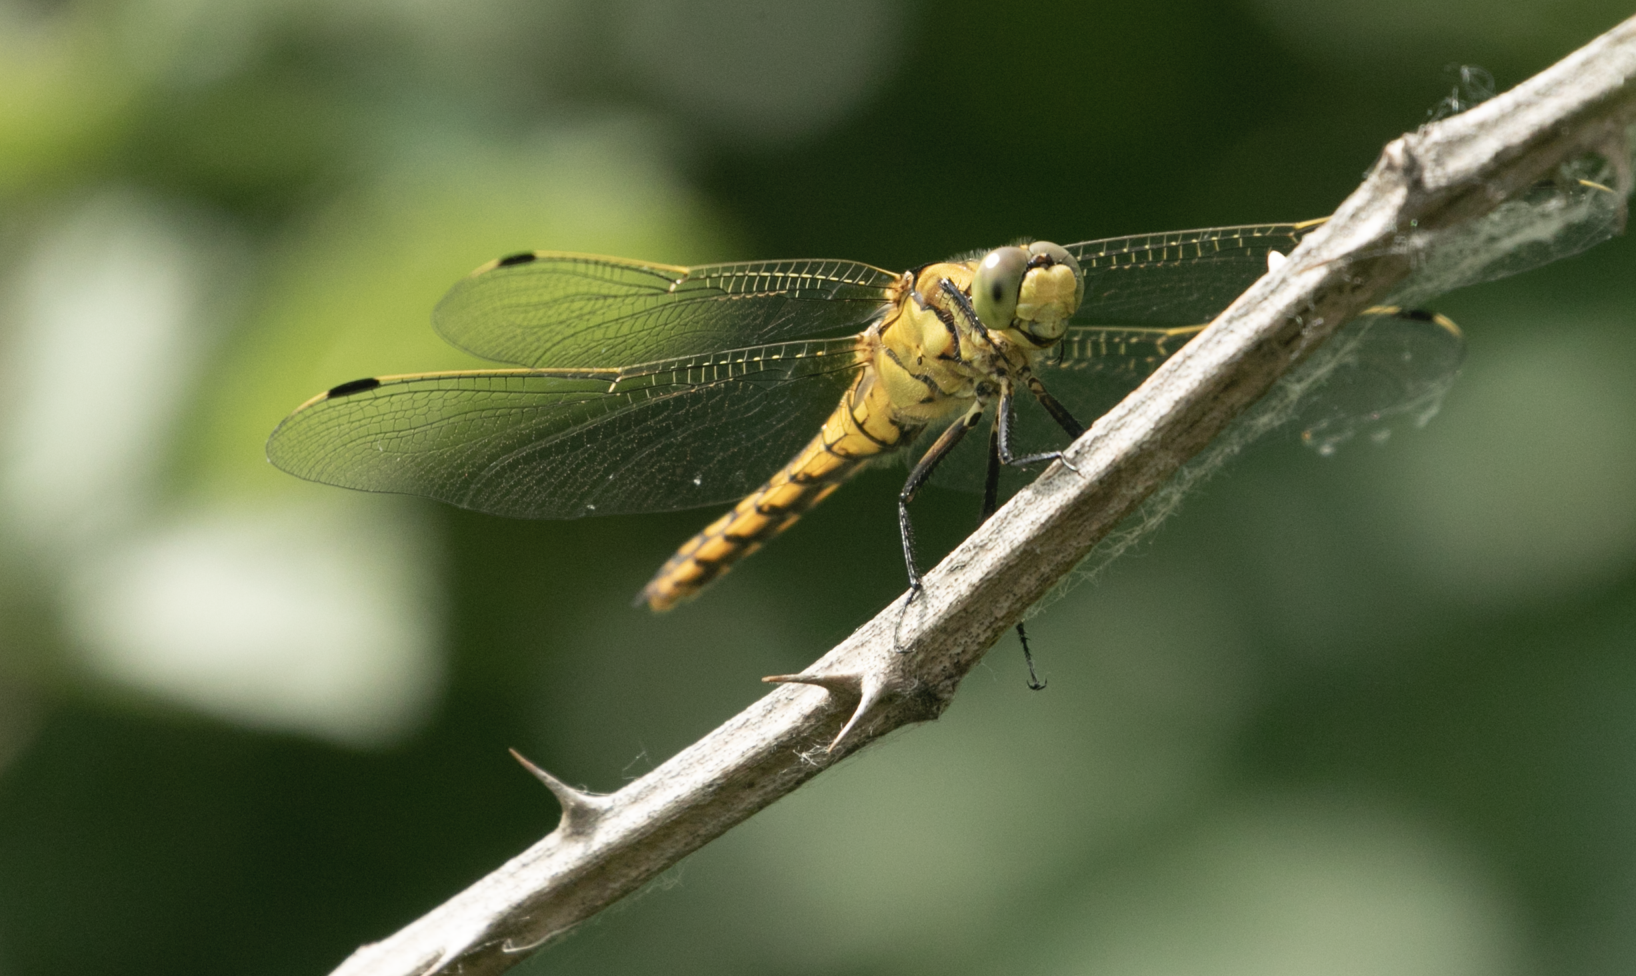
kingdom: Animalia
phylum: Arthropoda
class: Insecta
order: Odonata
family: Libellulidae
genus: Orthetrum
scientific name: Orthetrum cancellatum
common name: Black-tailed skimmer
